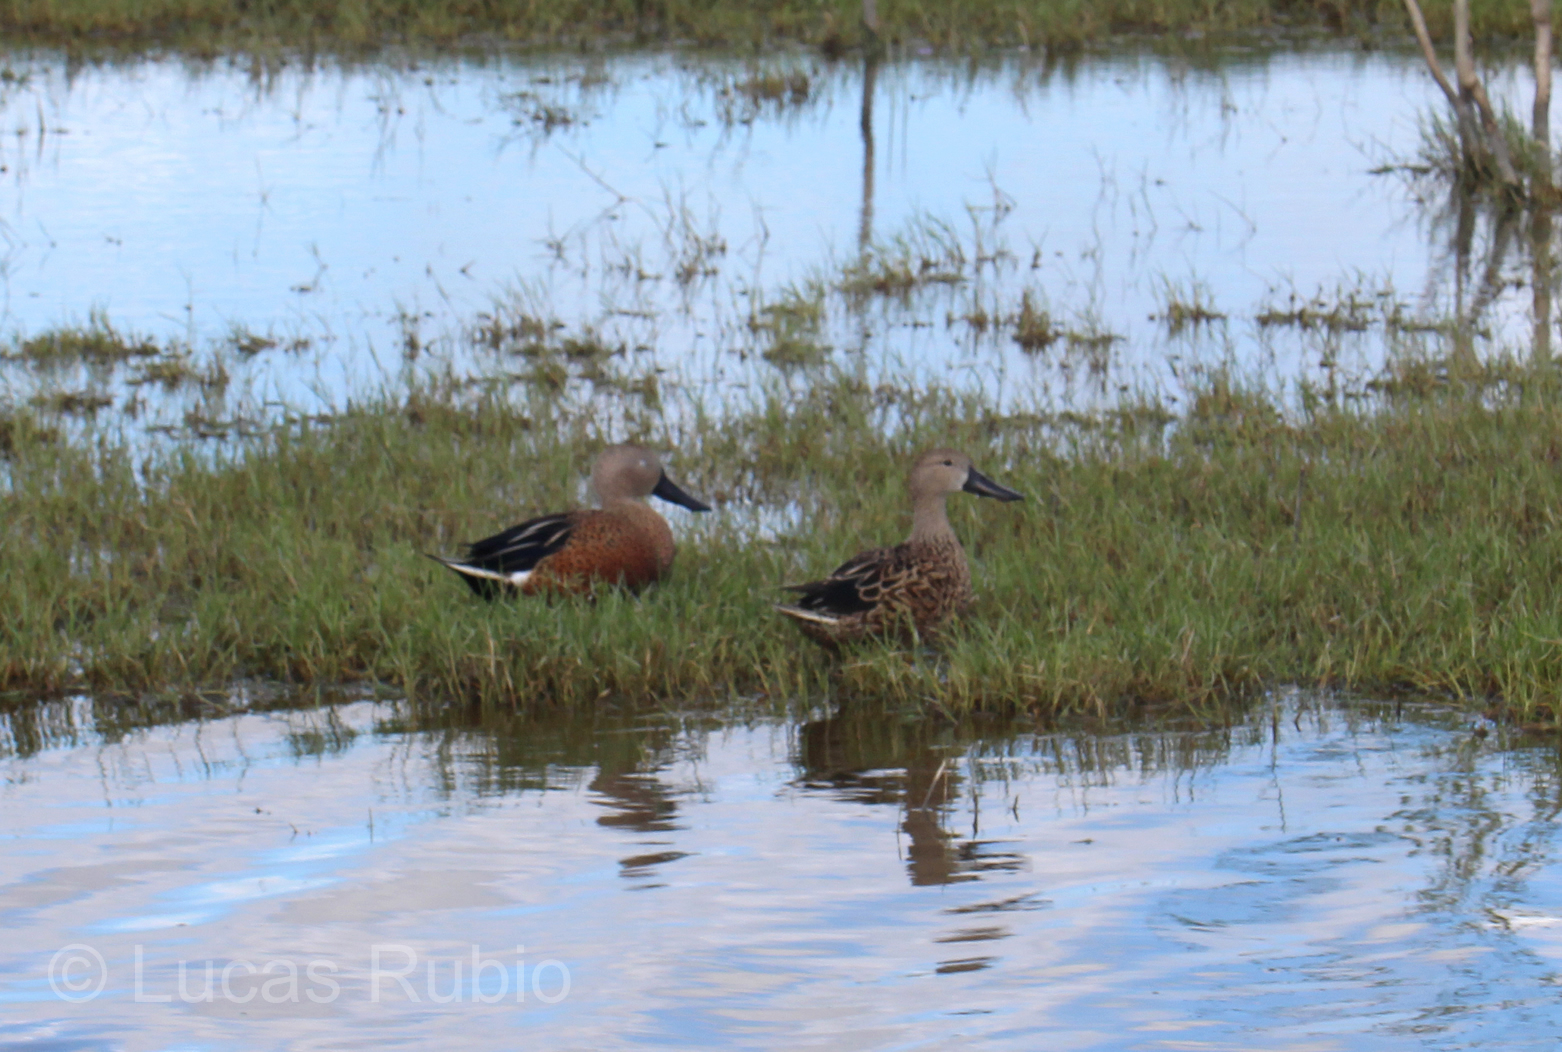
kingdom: Animalia
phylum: Chordata
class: Aves
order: Anseriformes
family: Anatidae
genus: Spatula
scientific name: Spatula platalea
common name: Red shoveler
